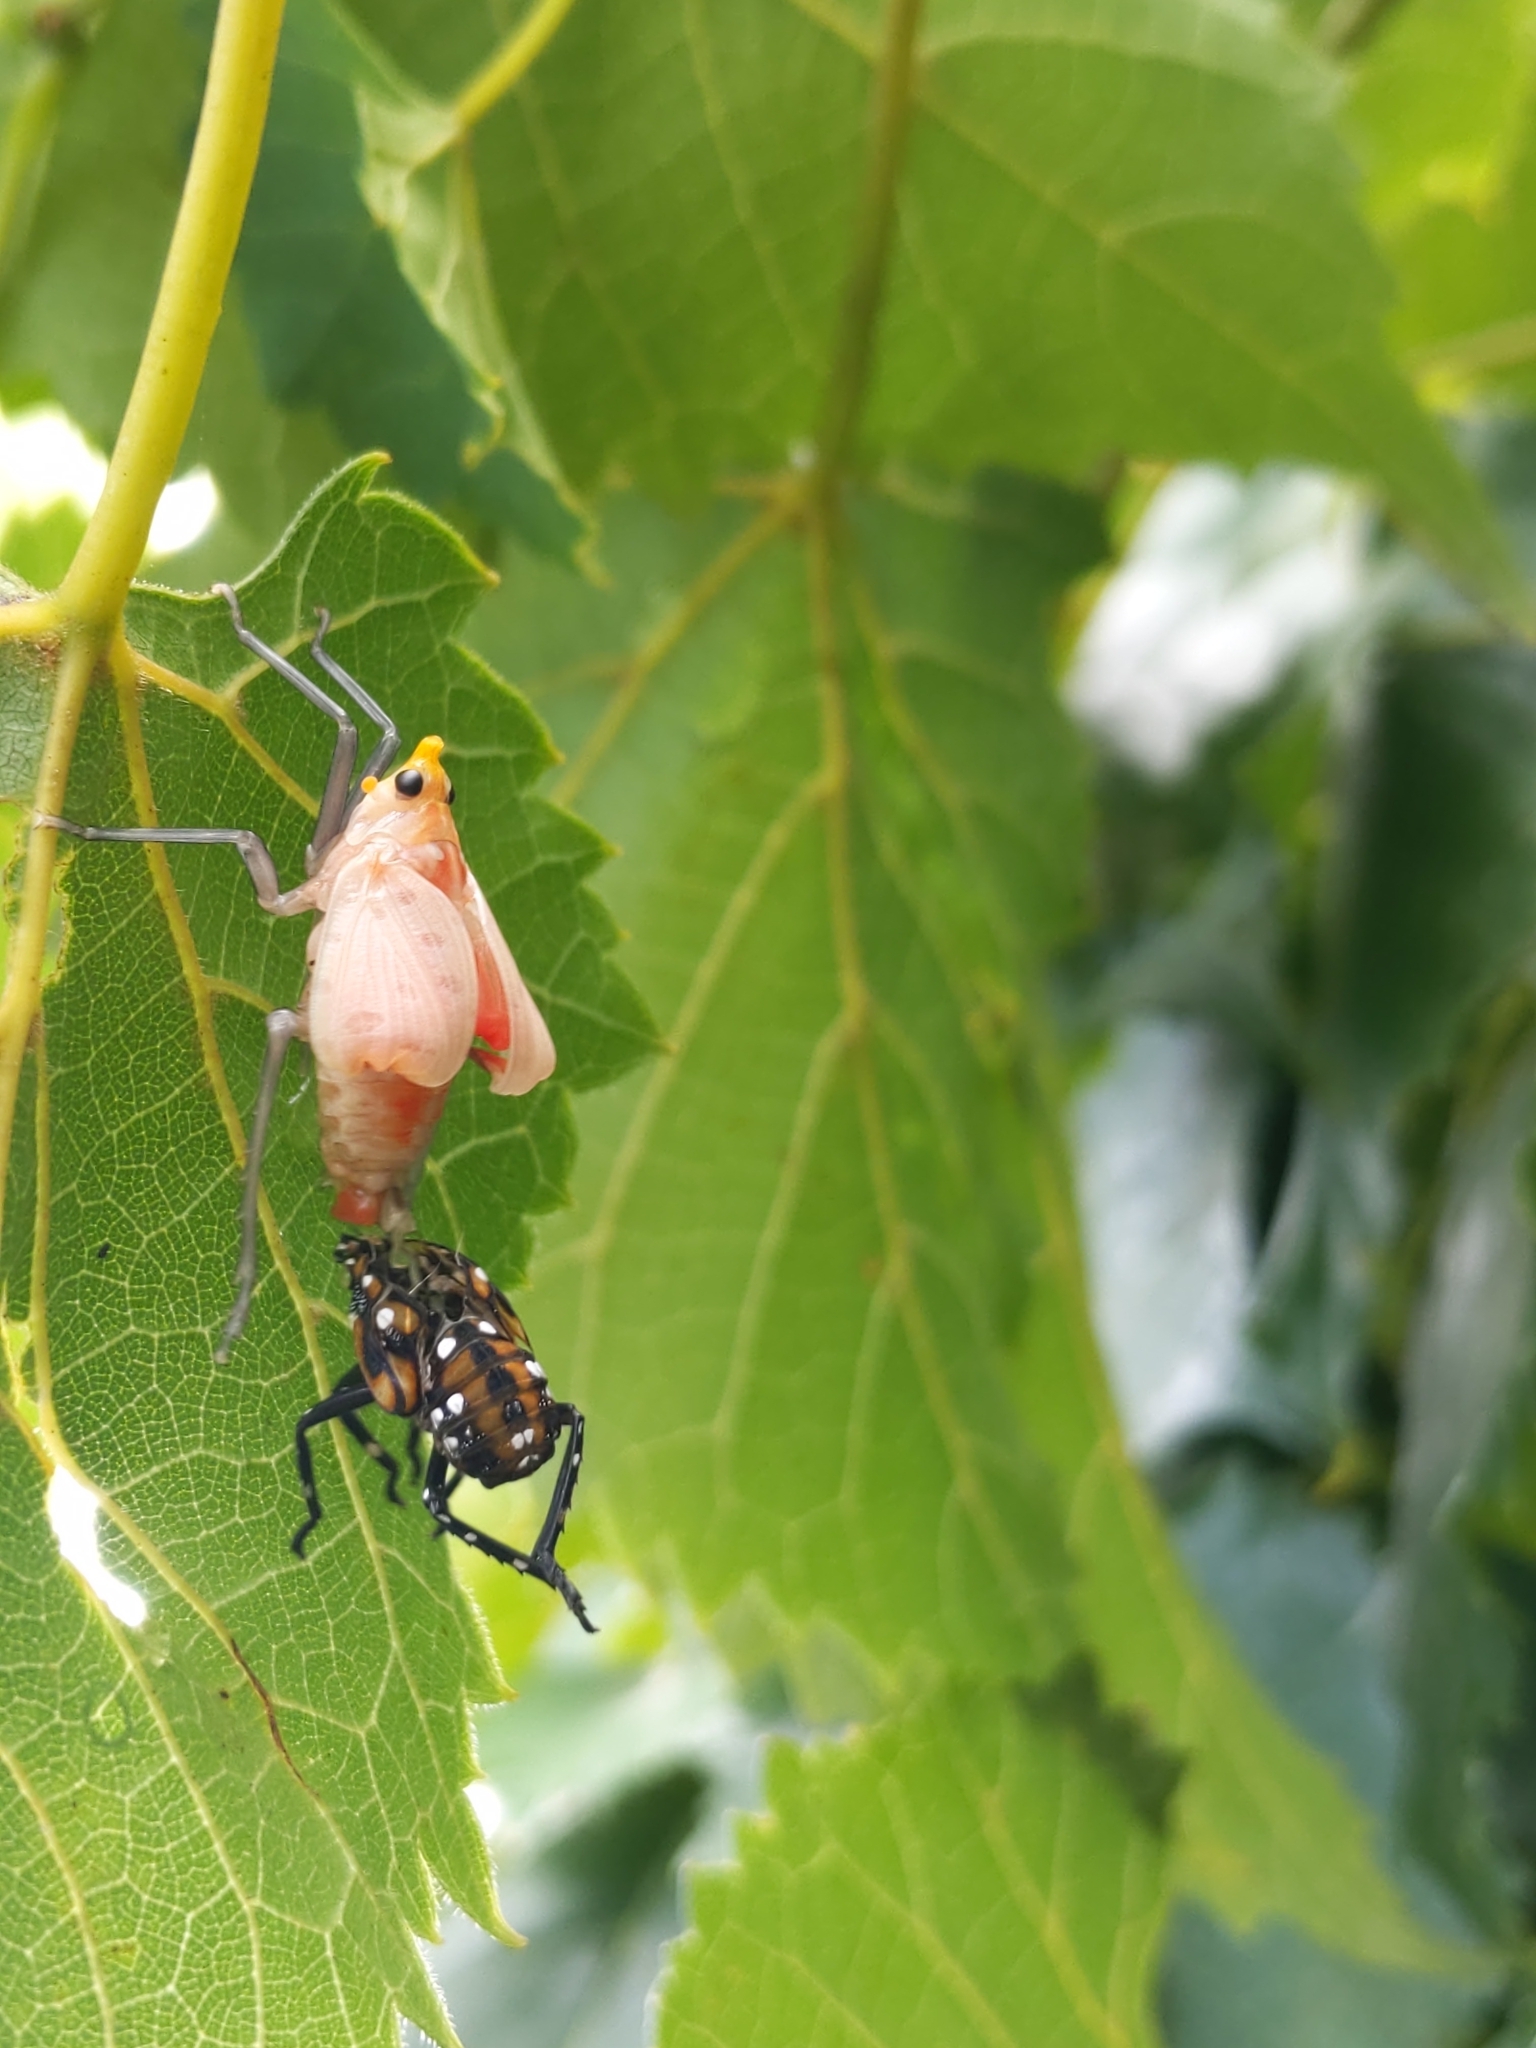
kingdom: Animalia
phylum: Arthropoda
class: Insecta
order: Hemiptera
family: Fulgoridae
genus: Lycorma
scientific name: Lycorma delicatula
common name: Spotted lanternfly
